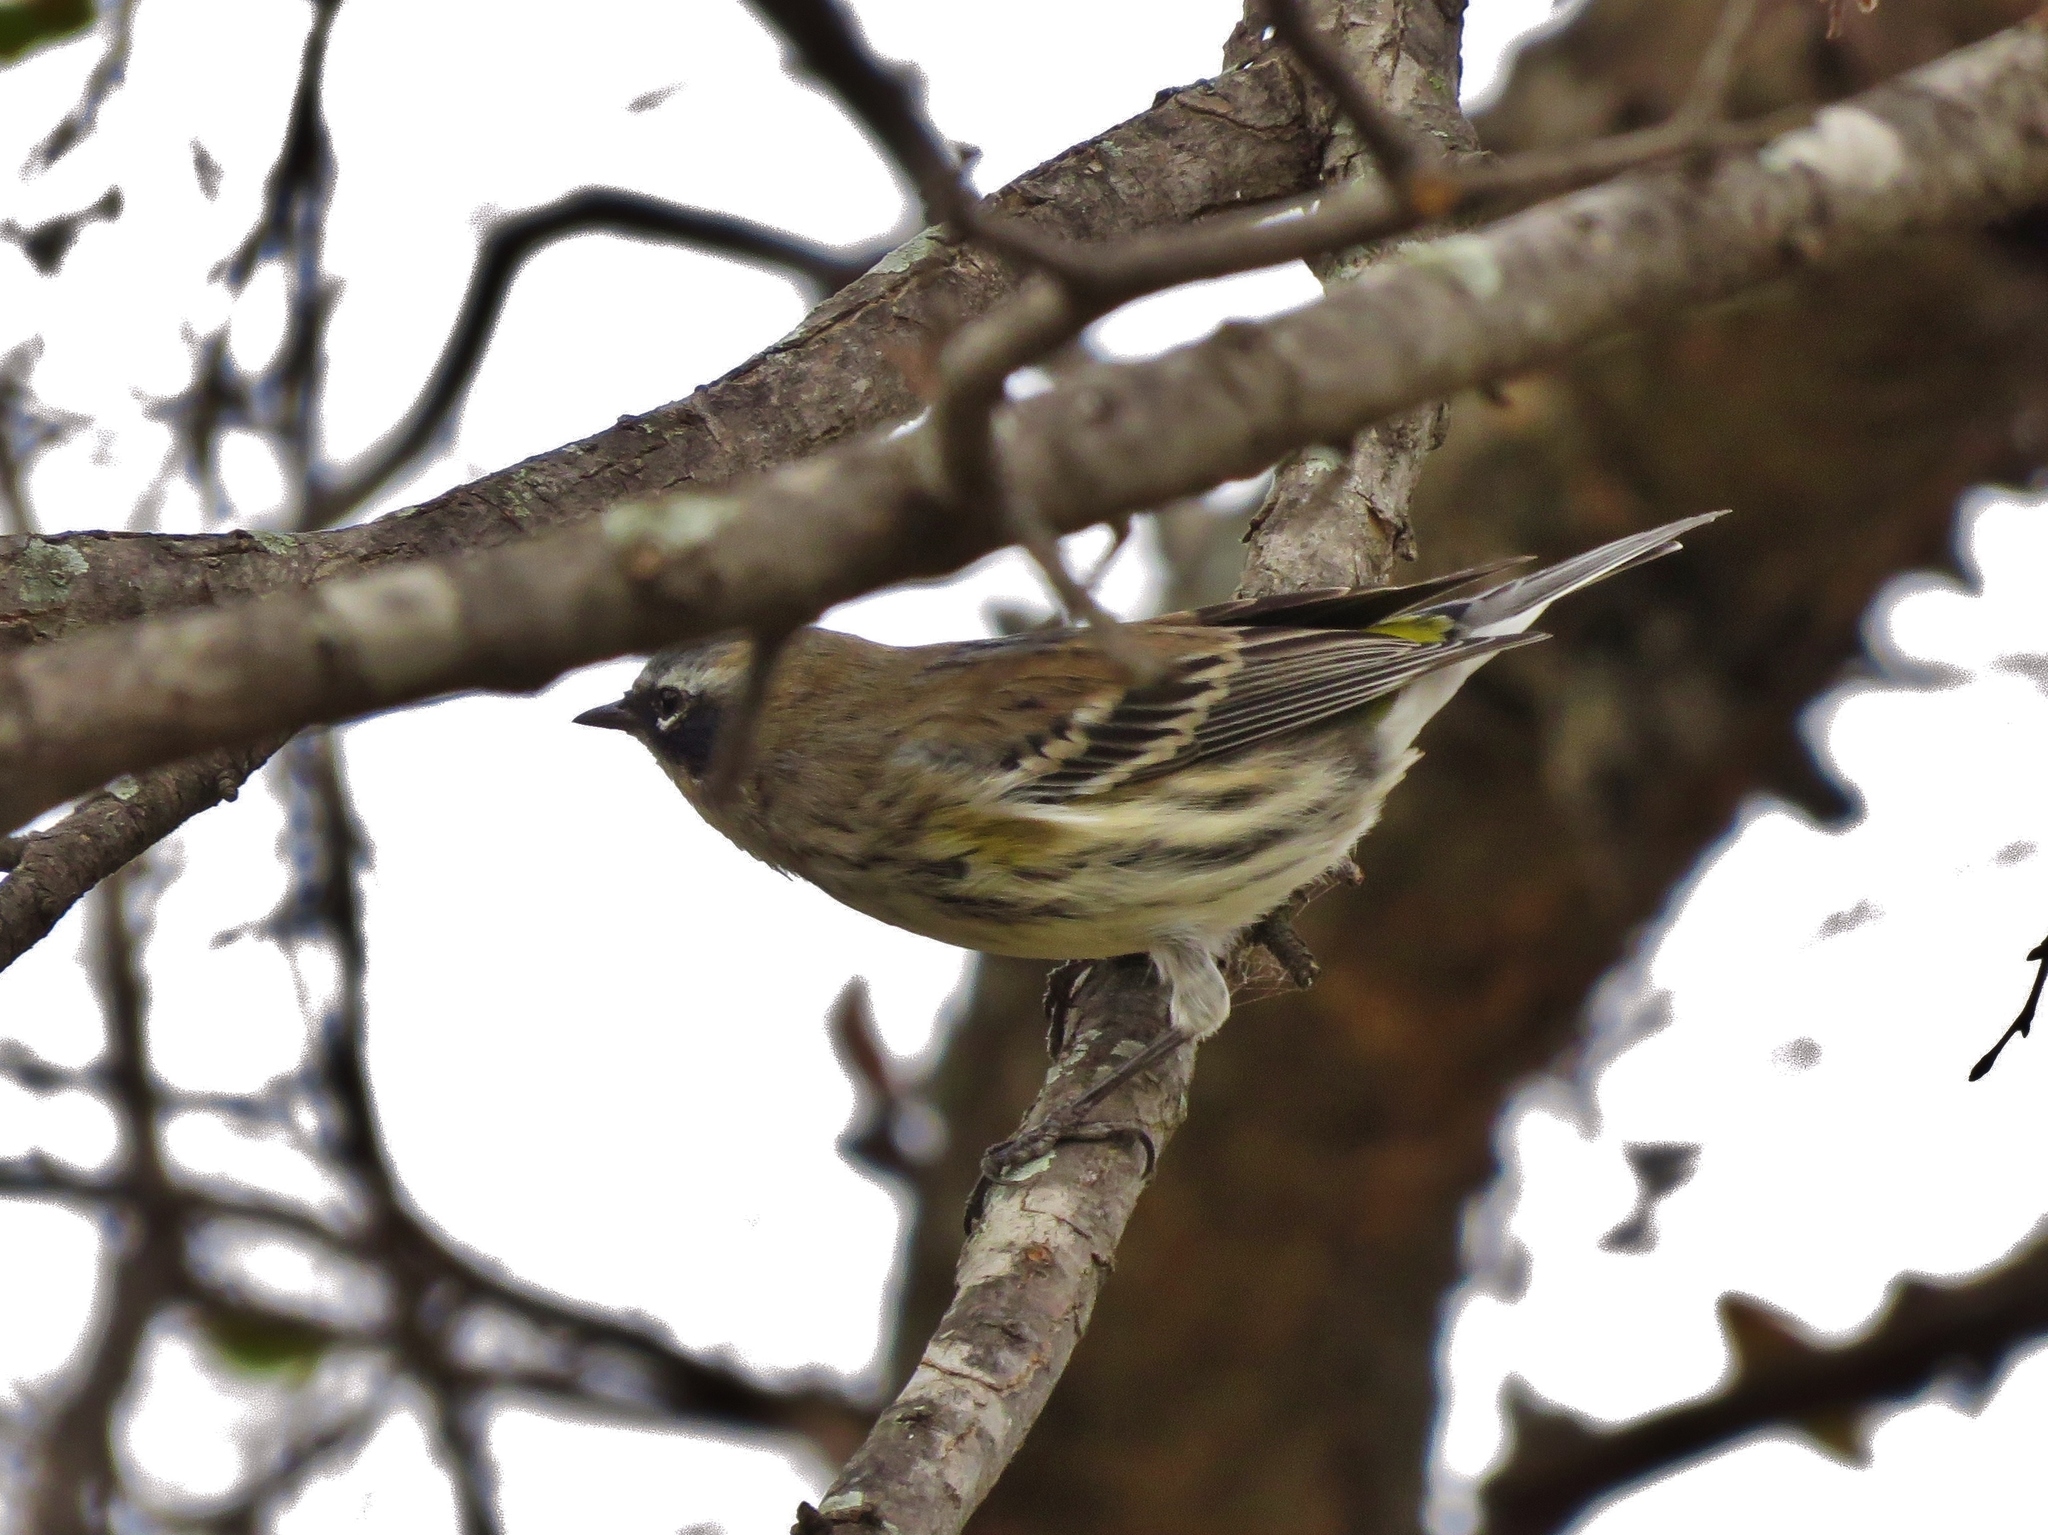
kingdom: Animalia
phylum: Chordata
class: Aves
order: Passeriformes
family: Parulidae
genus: Setophaga
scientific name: Setophaga coronata
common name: Myrtle warbler
